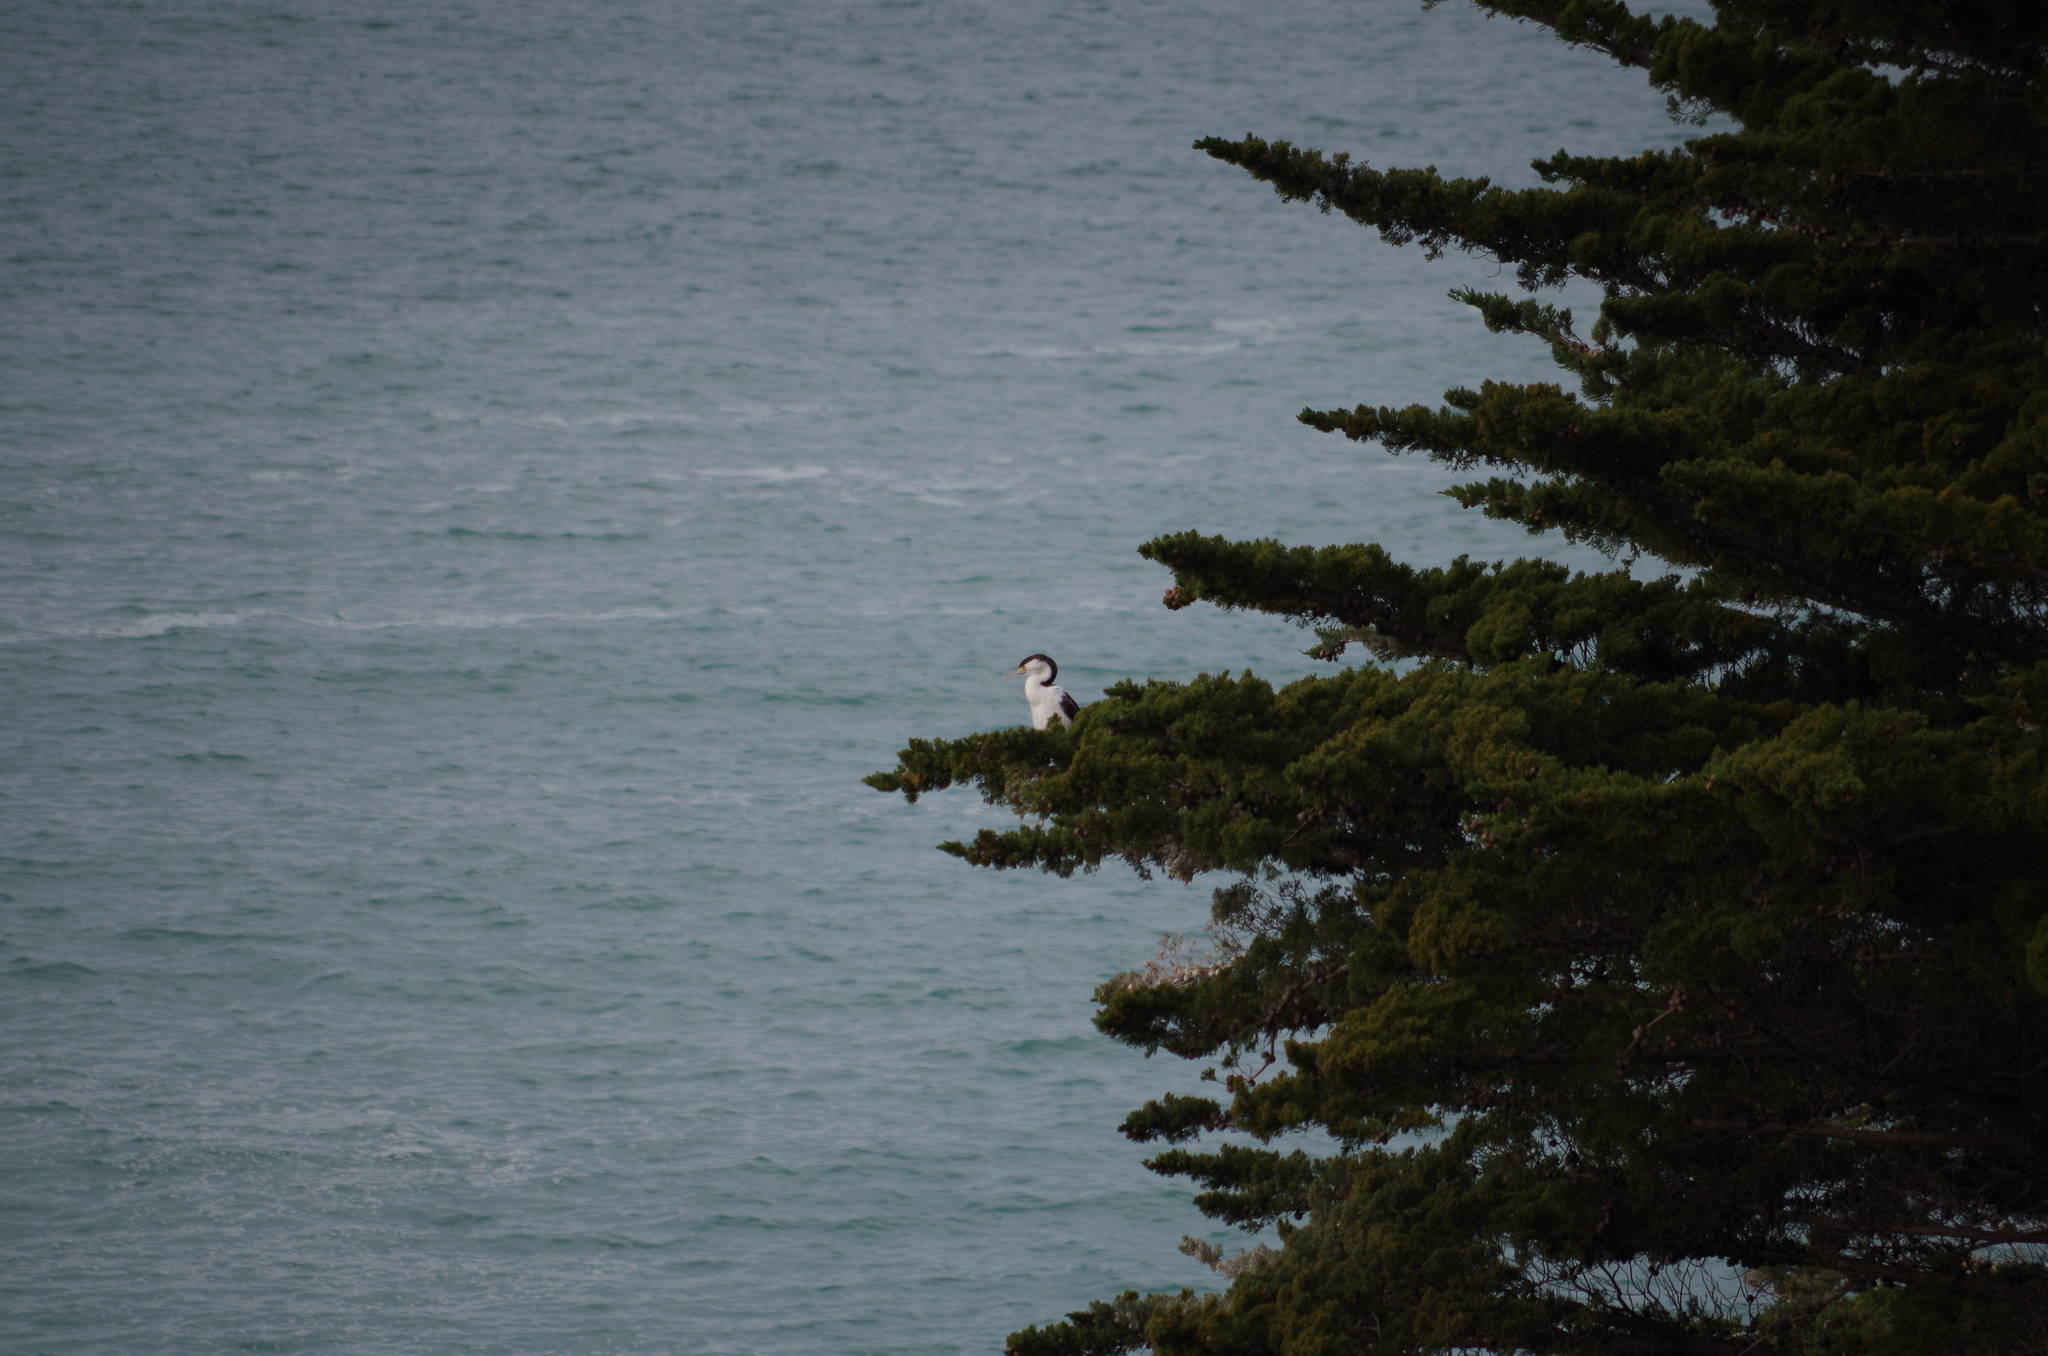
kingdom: Animalia
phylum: Chordata
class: Aves
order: Suliformes
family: Phalacrocoracidae
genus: Phalacrocorax
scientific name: Phalacrocorax varius
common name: Pied cormorant
